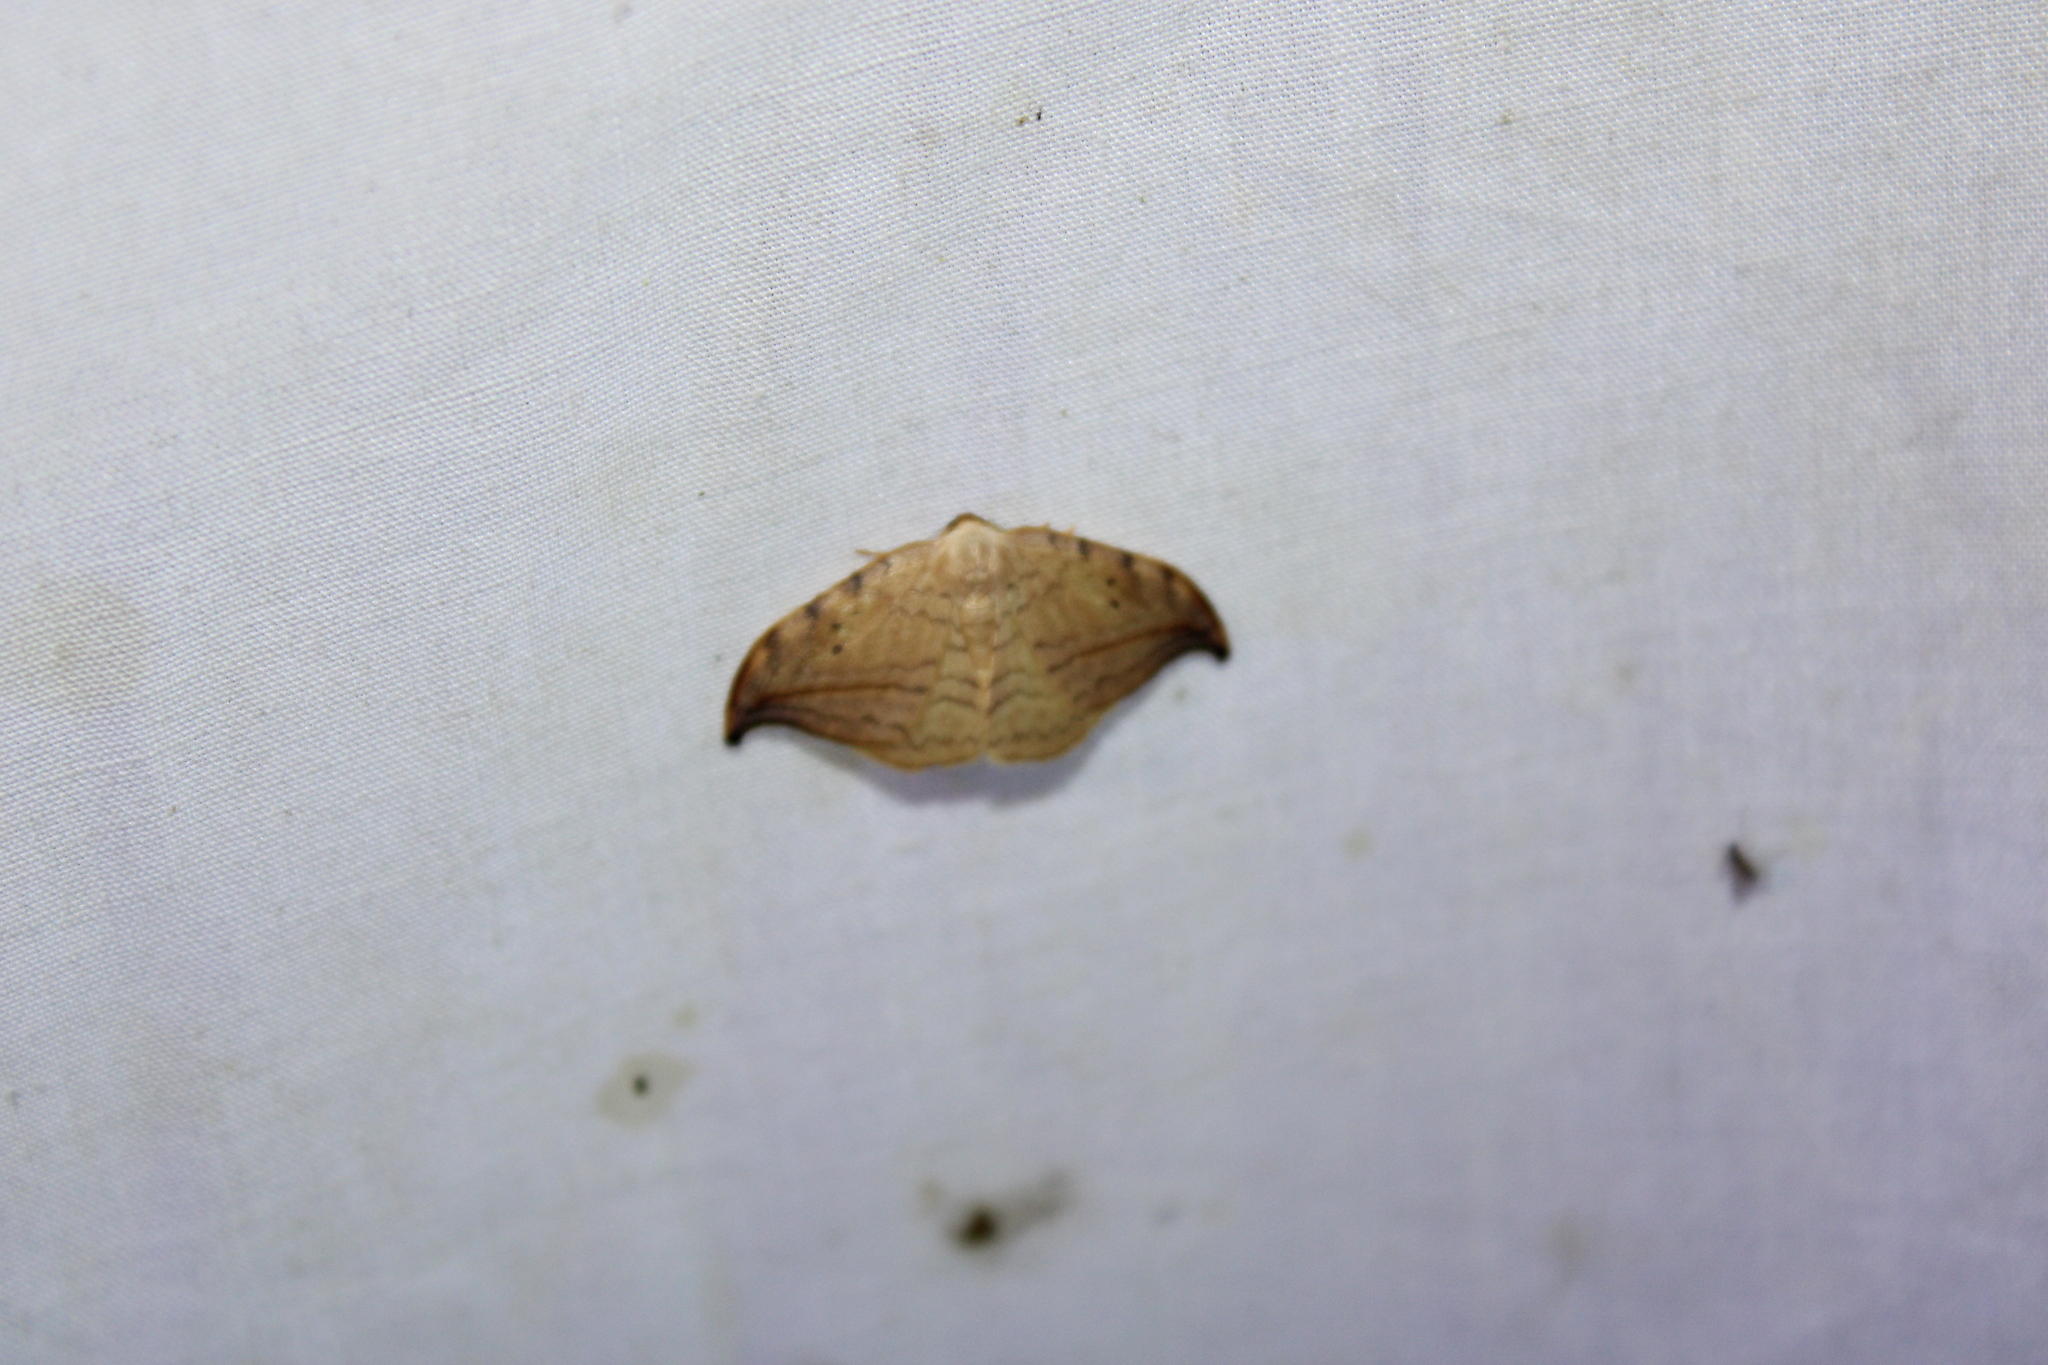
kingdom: Animalia
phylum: Arthropoda
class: Insecta
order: Lepidoptera
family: Drepanidae
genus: Drepana
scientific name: Drepana arcuata
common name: Arched hooktip moth
